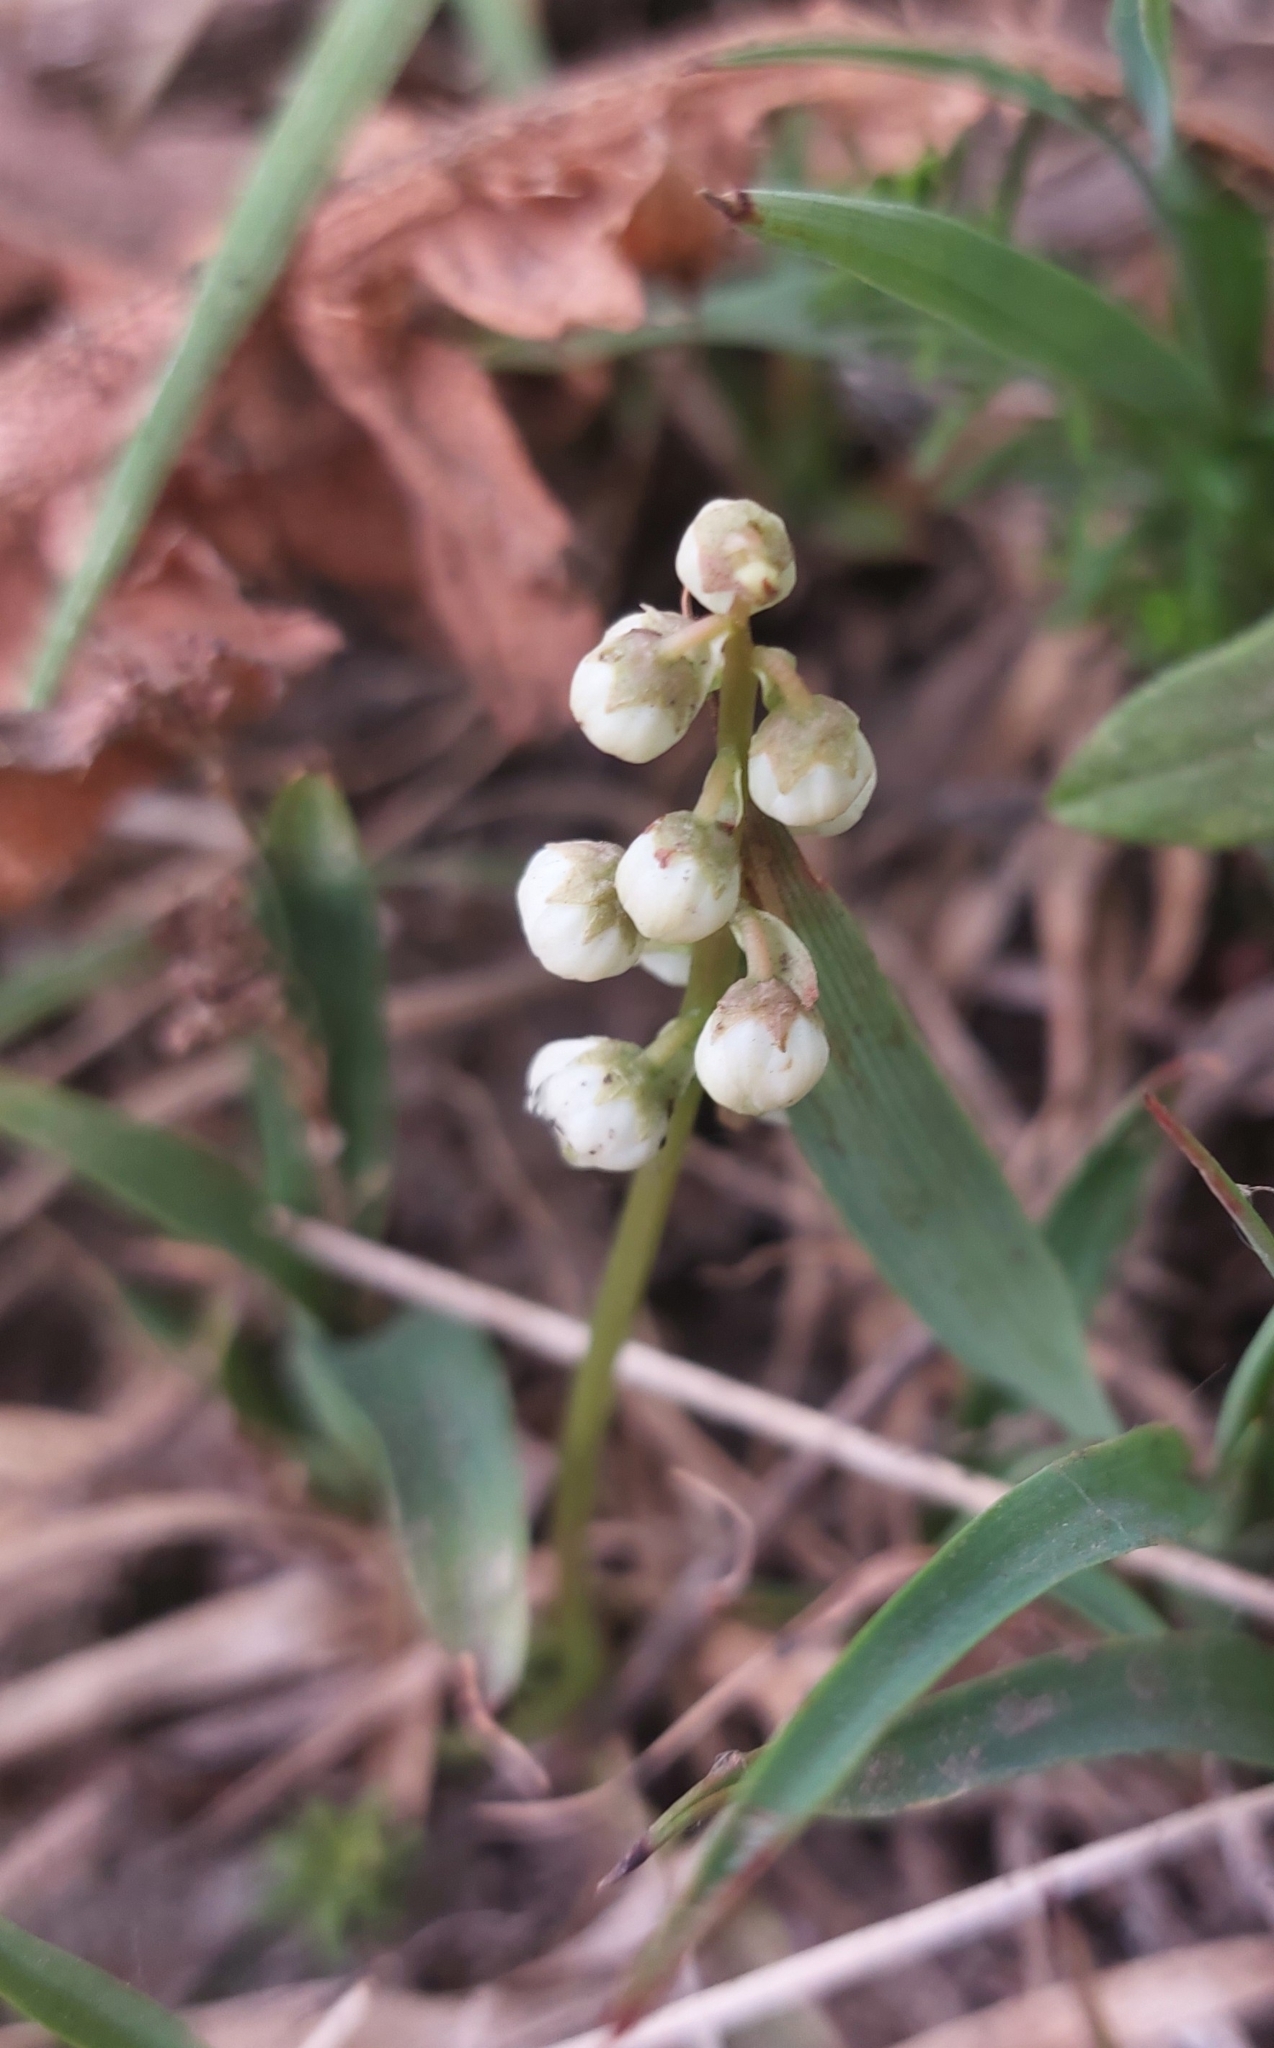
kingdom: Plantae
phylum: Tracheophyta
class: Magnoliopsida
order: Ericales
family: Ericaceae
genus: Pyrola
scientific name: Pyrola minor
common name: Common wintergreen
